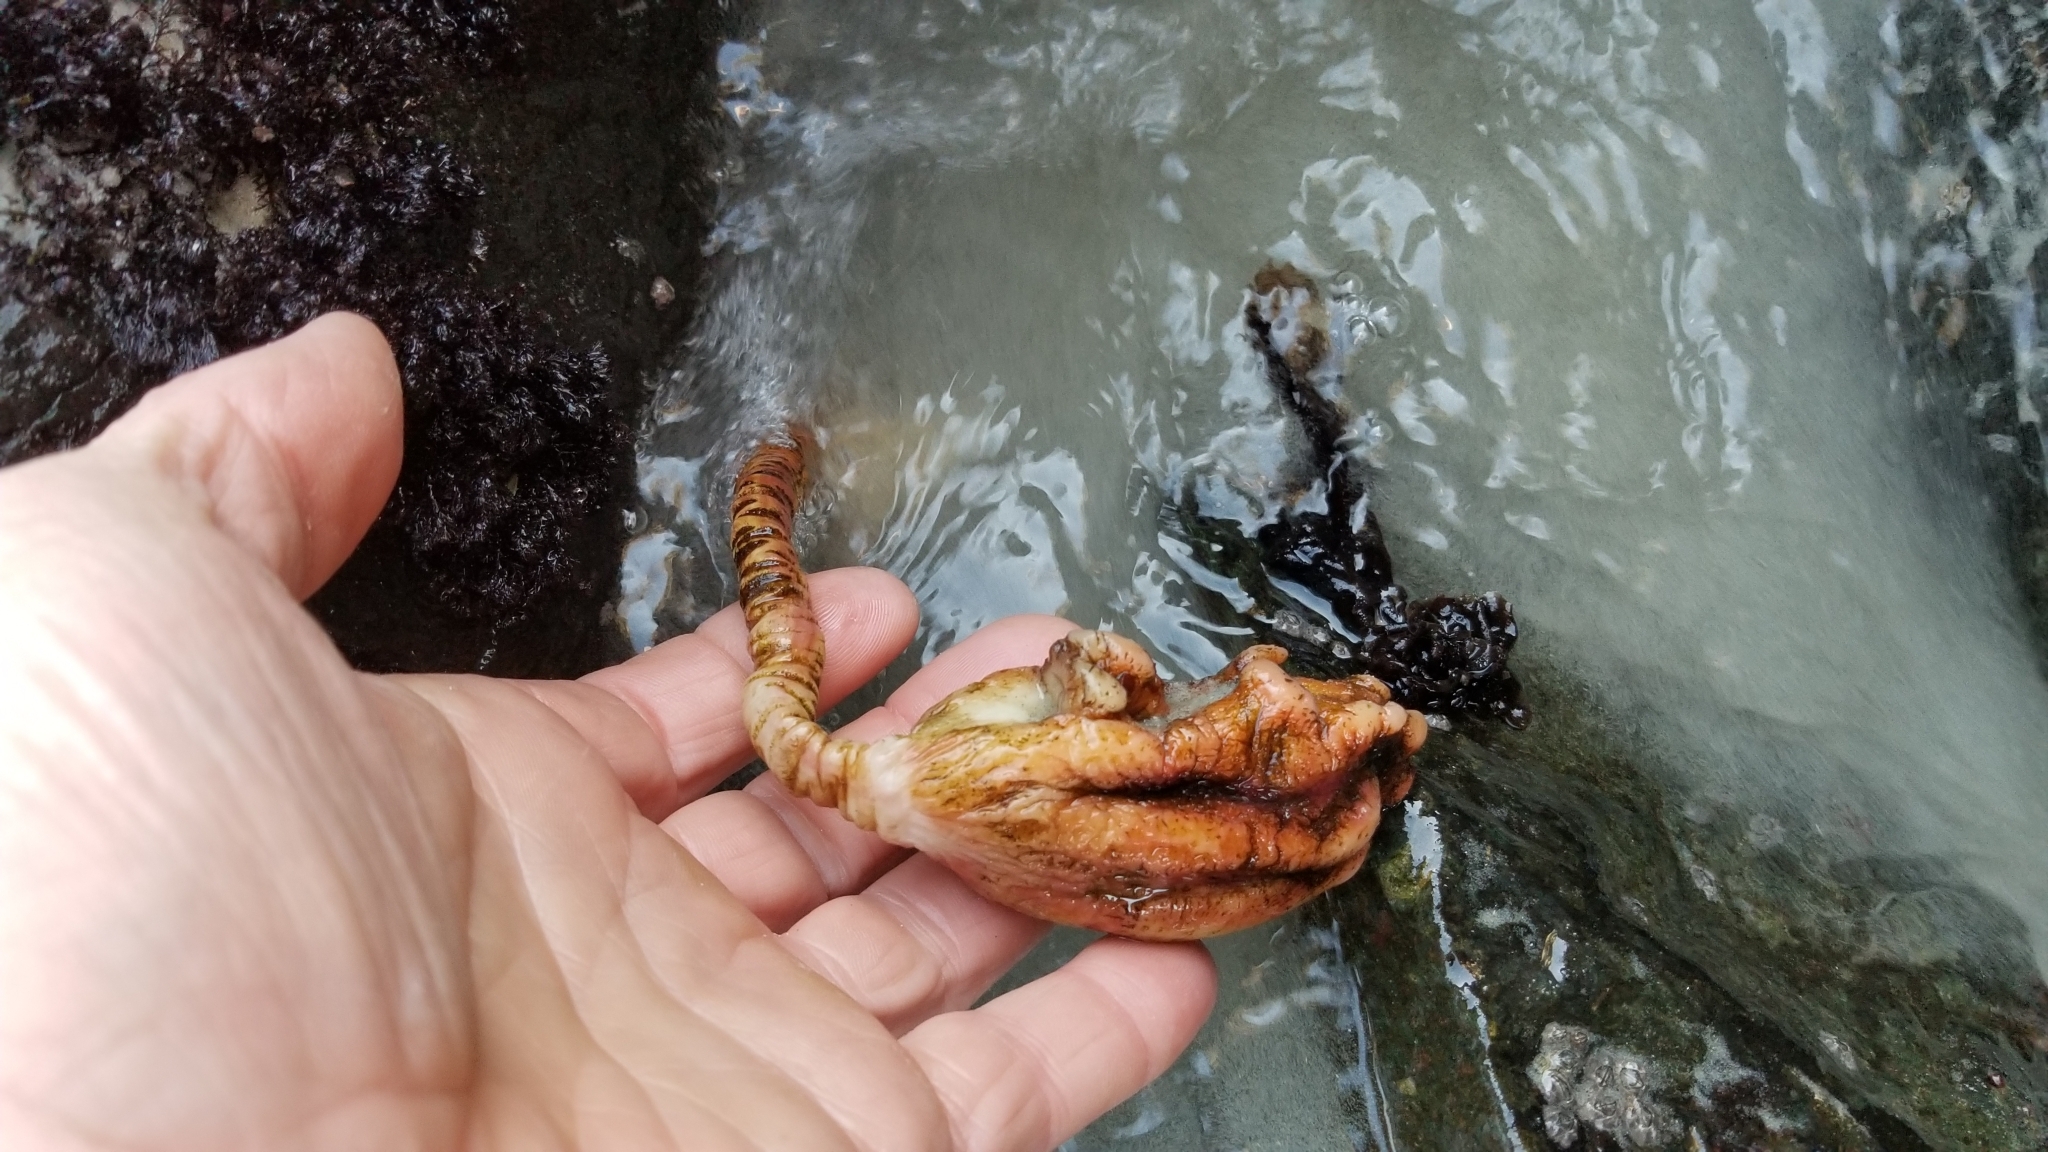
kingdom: Animalia
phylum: Chordata
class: Ascidiacea
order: Stolidobranchia
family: Pyuridae
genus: Pyura
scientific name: Pyura pachydermatina
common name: Sea tulip
